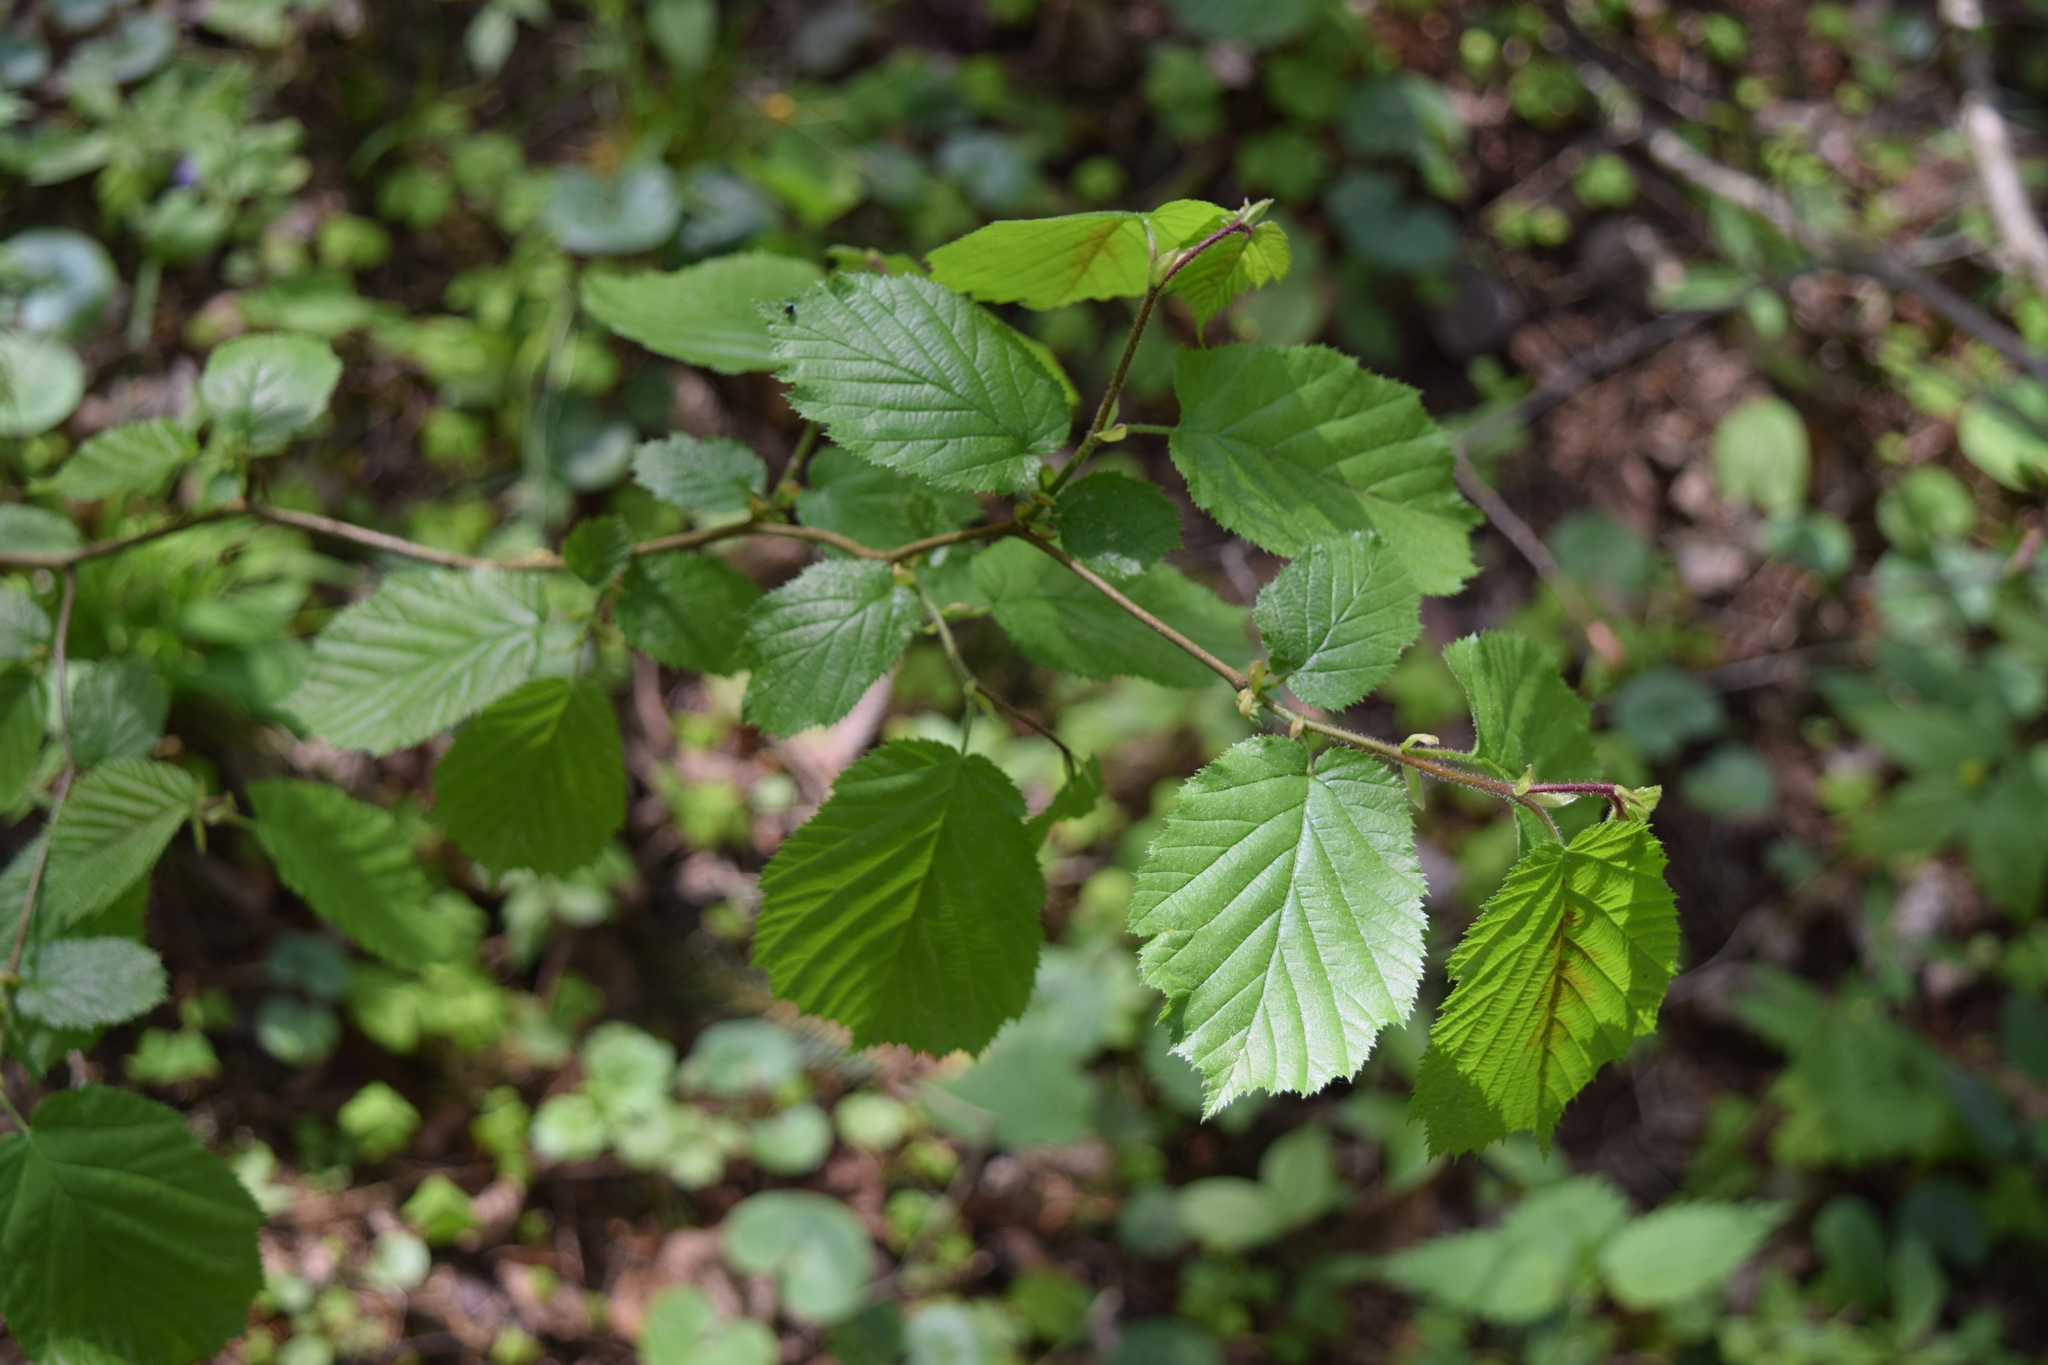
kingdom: Plantae
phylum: Tracheophyta
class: Magnoliopsida
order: Fagales
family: Betulaceae
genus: Corylus
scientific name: Corylus avellana
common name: European hazel
